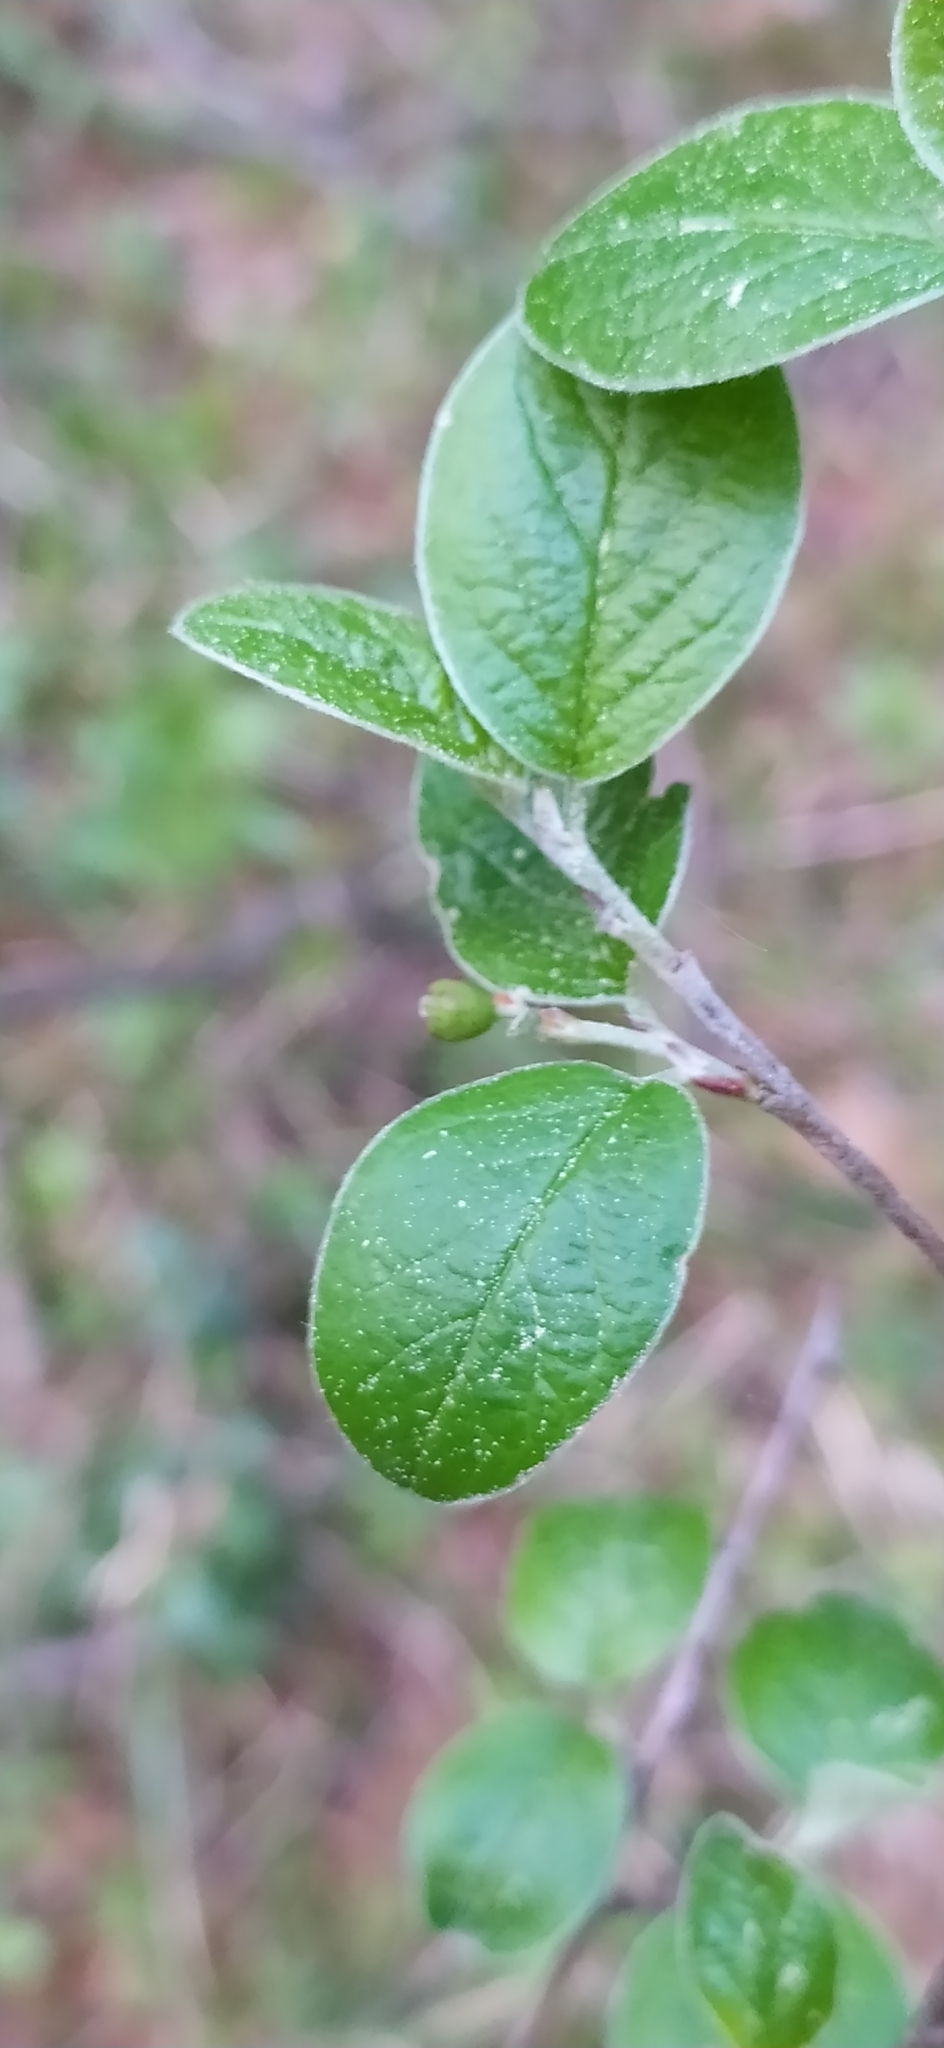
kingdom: Plantae
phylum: Tracheophyta
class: Magnoliopsida
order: Rosales
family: Rosaceae
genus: Cotoneaster
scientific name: Cotoneaster melanocarpus
